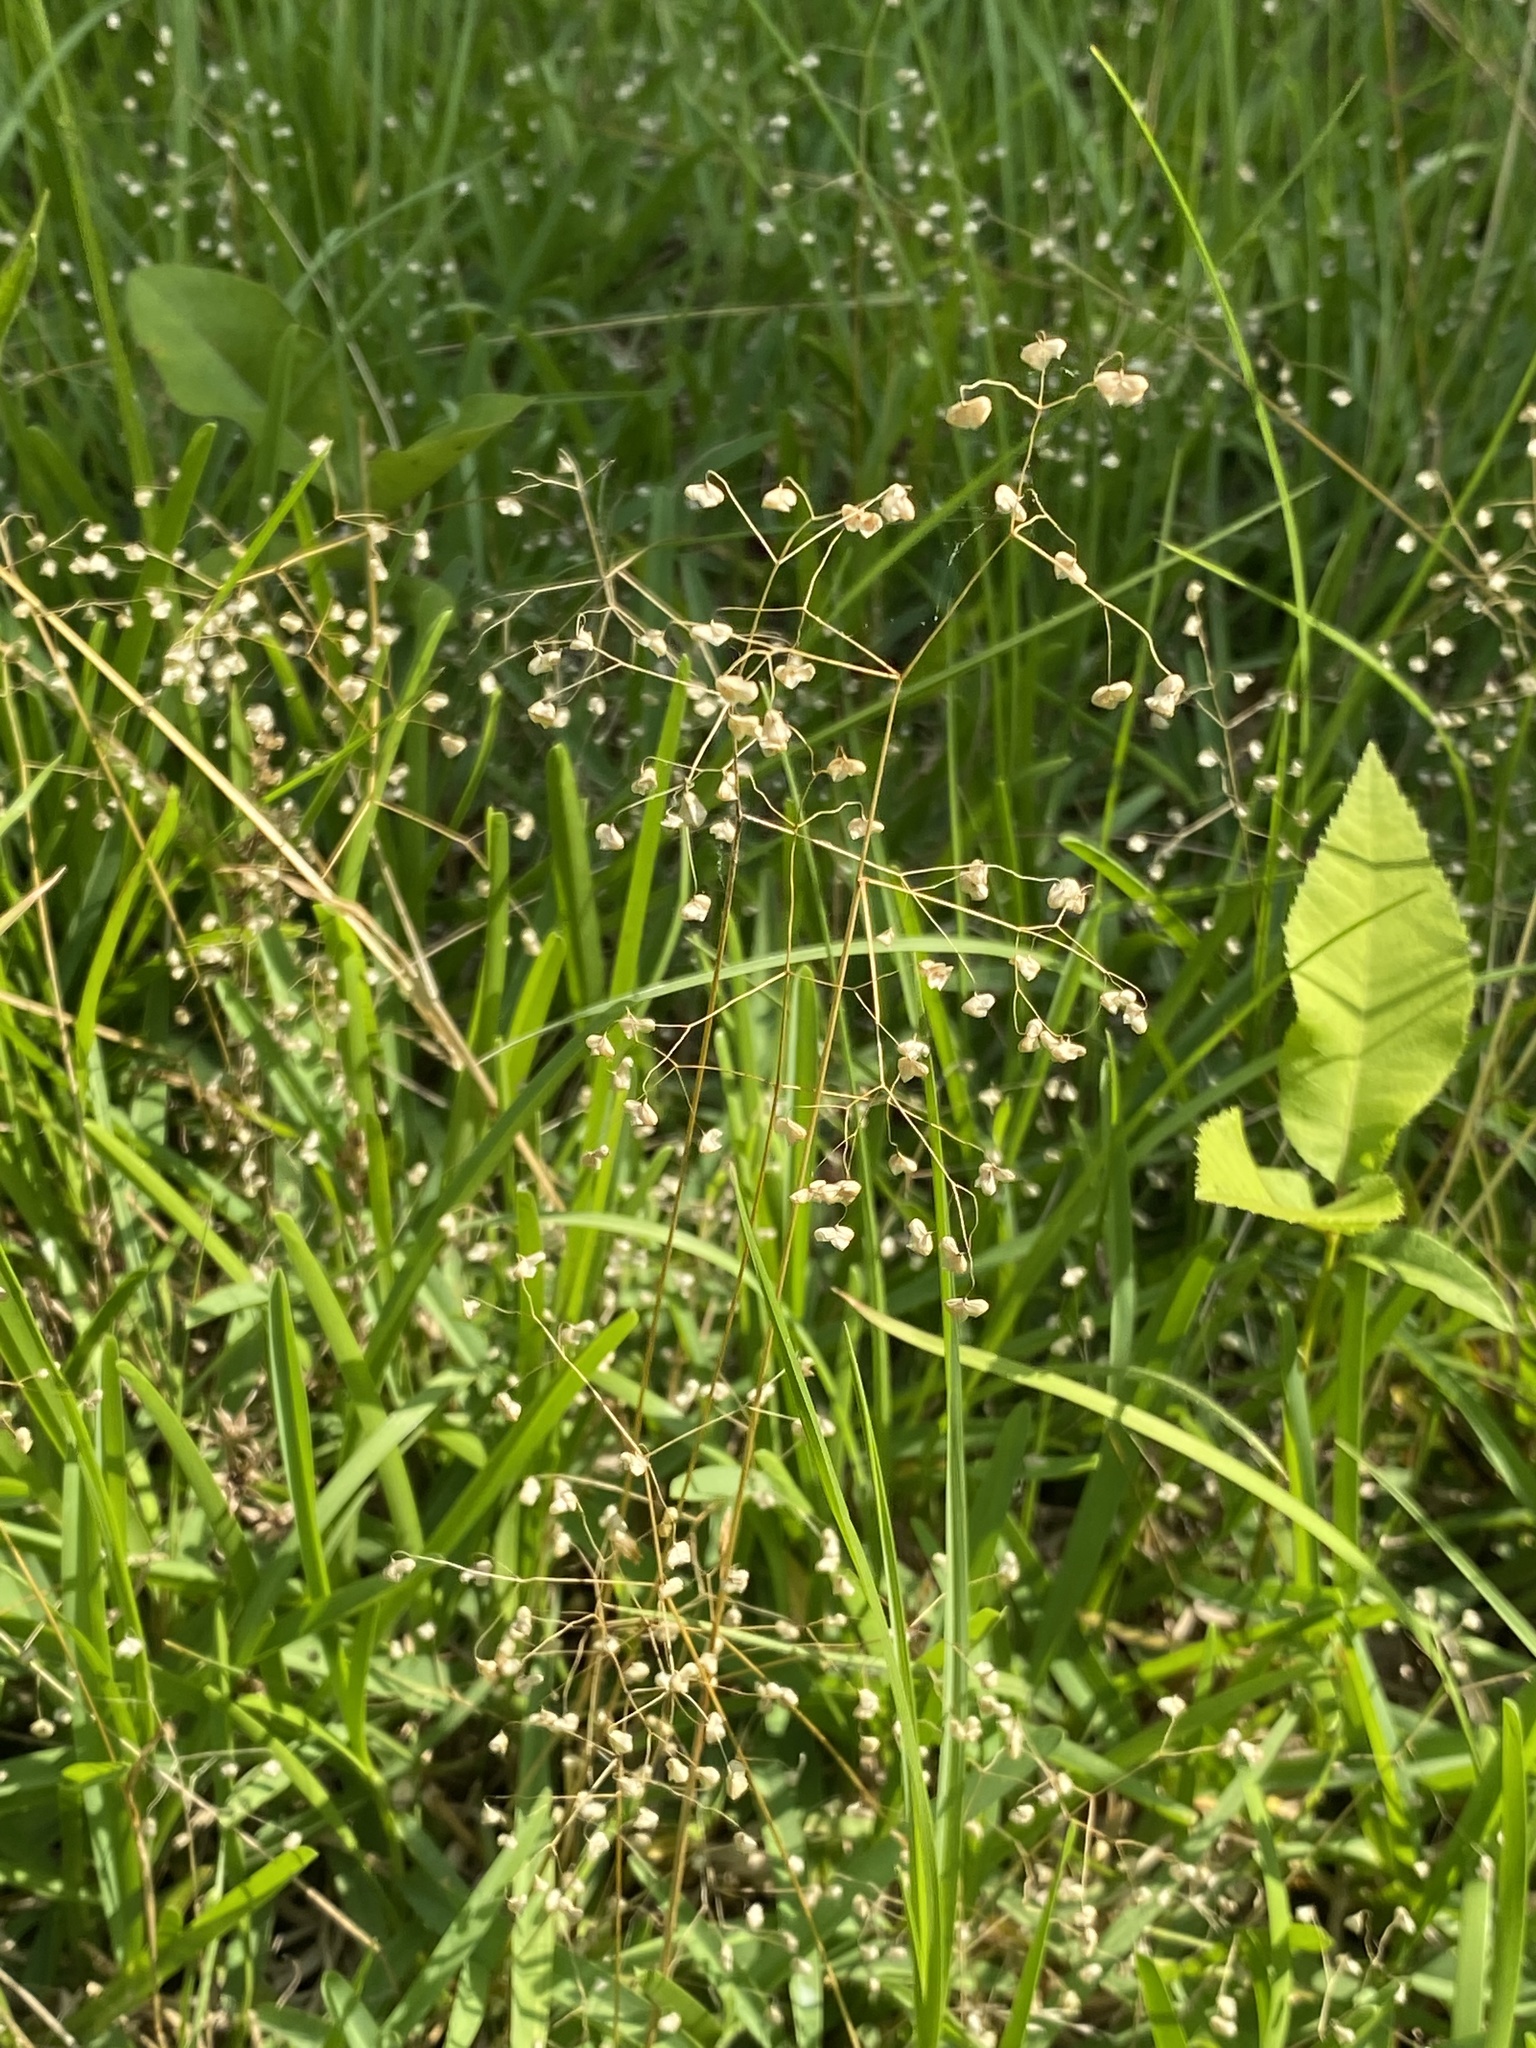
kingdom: Plantae
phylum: Tracheophyta
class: Liliopsida
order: Poales
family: Poaceae
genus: Briza
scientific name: Briza minor
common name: Lesser quaking-grass
